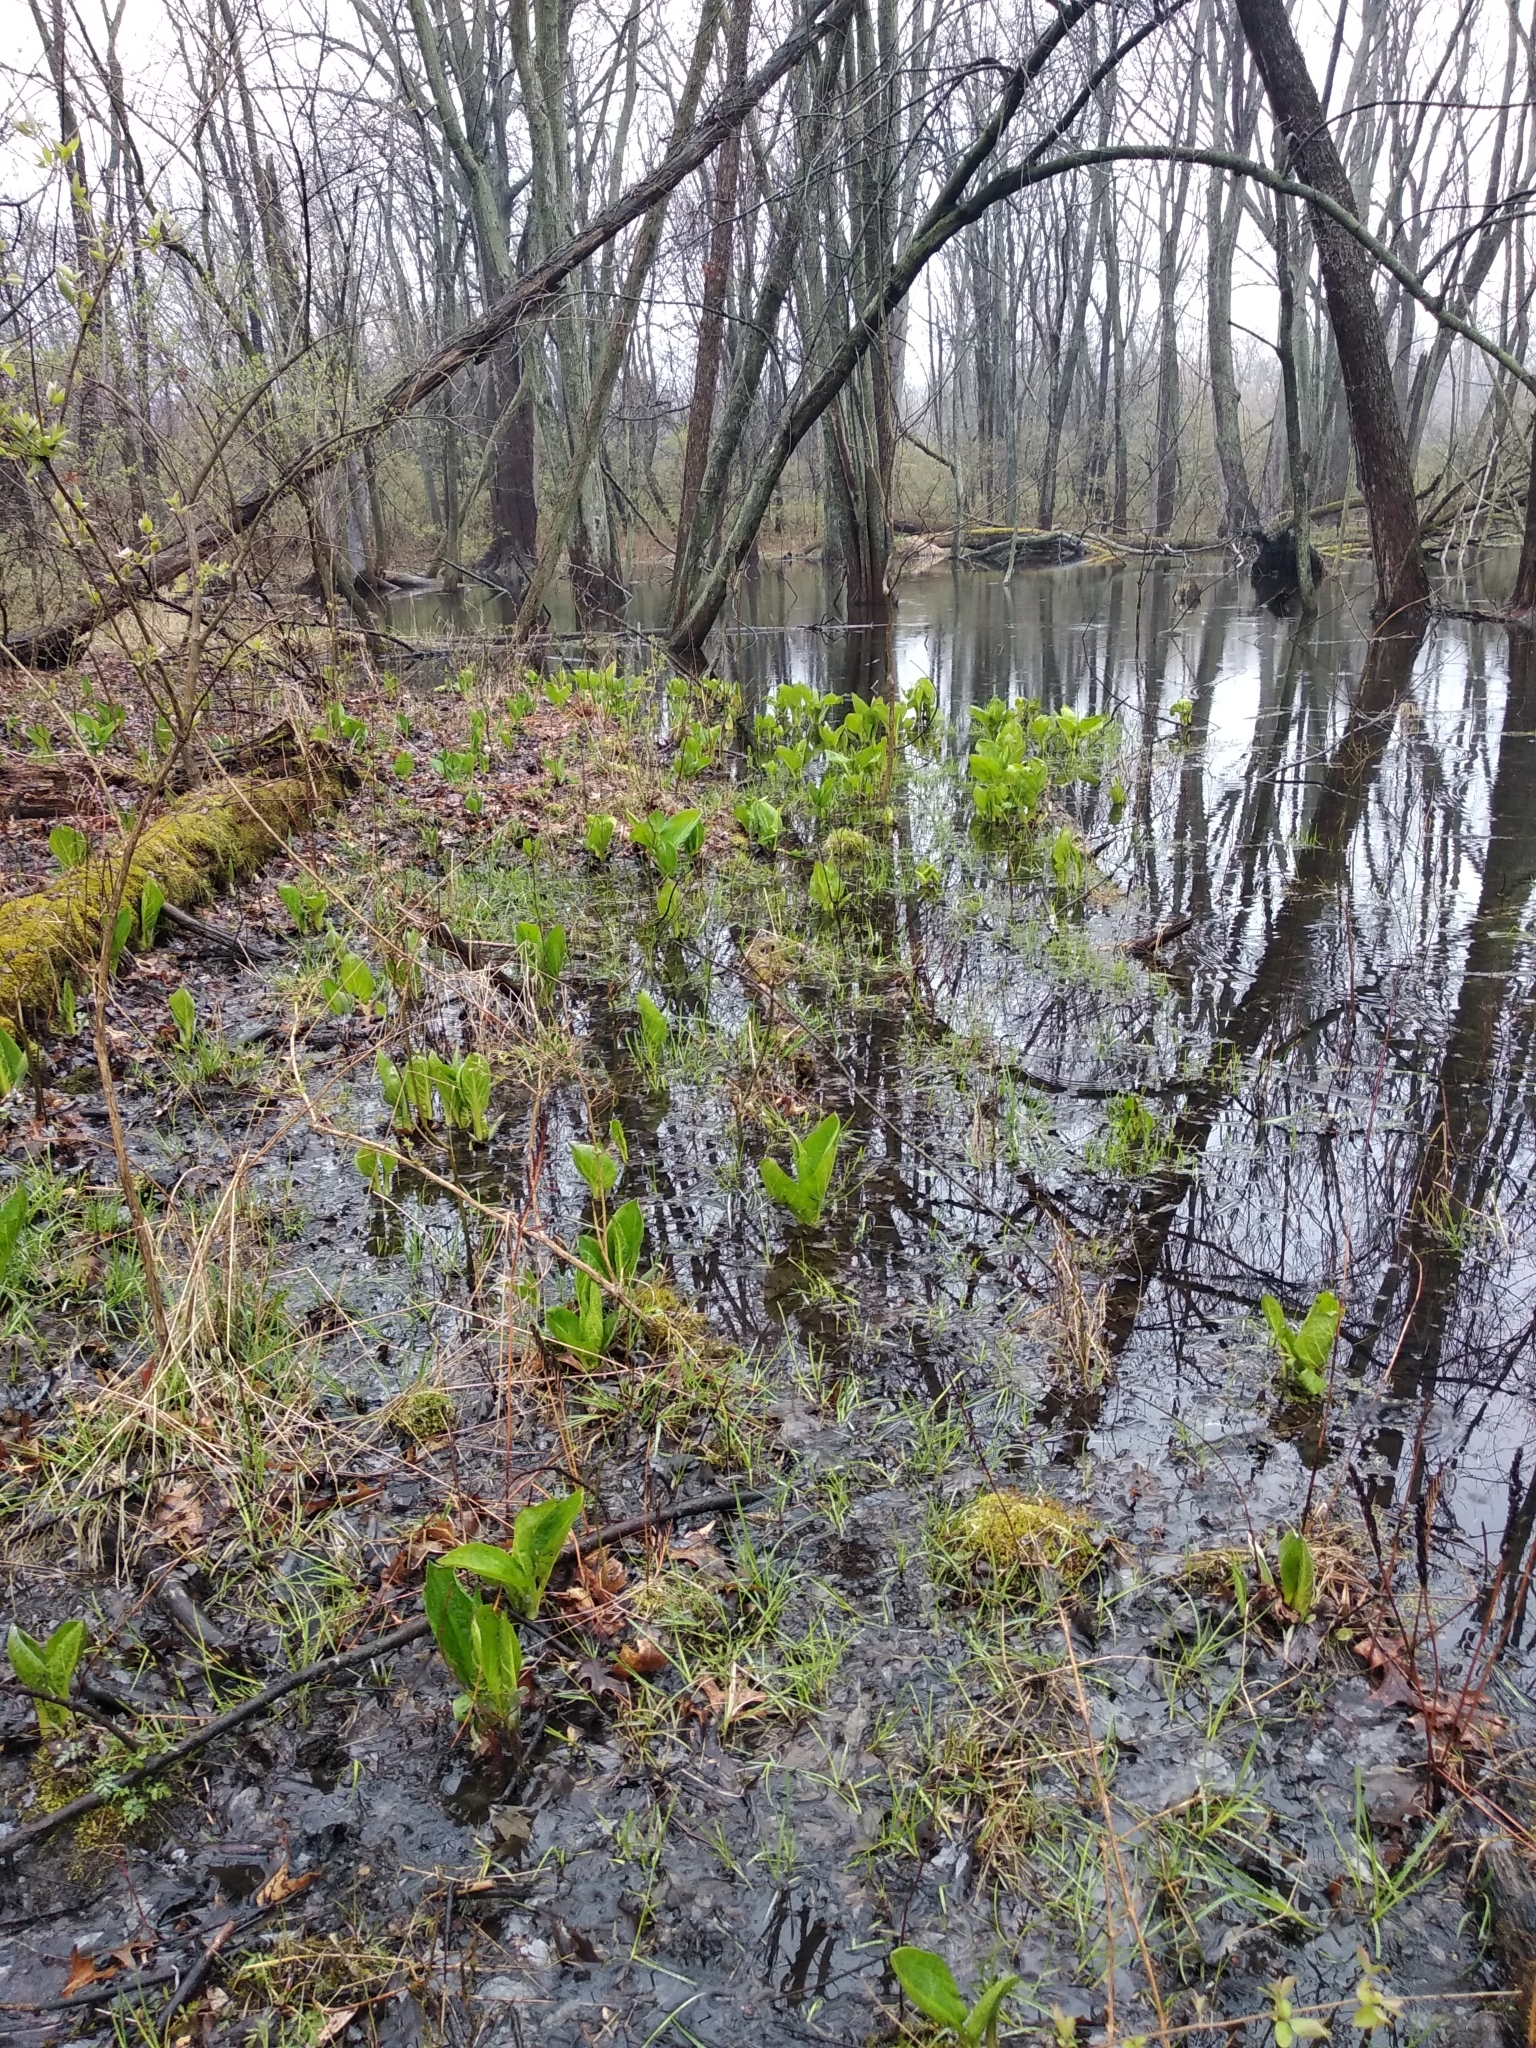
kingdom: Plantae
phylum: Tracheophyta
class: Liliopsida
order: Alismatales
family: Araceae
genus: Symplocarpus
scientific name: Symplocarpus foetidus
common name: Eastern skunk cabbage
